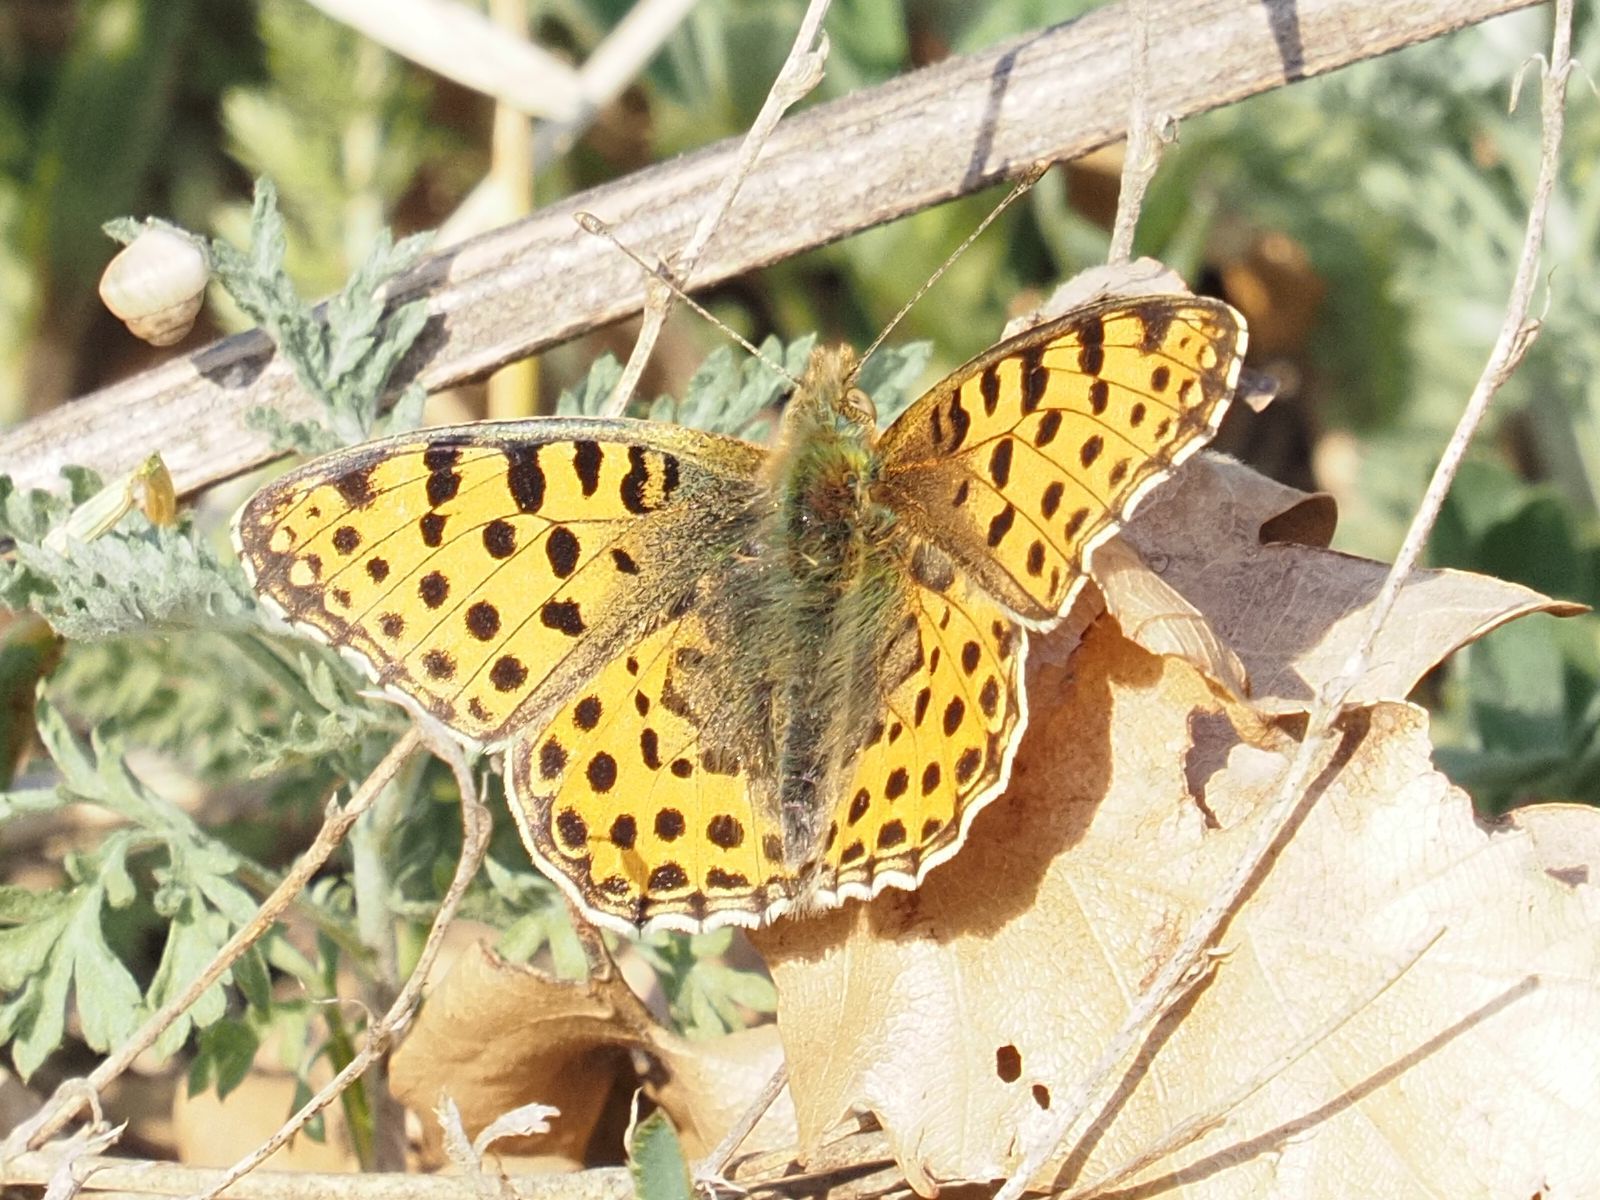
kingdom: Animalia
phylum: Arthropoda
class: Insecta
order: Lepidoptera
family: Nymphalidae
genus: Issoria
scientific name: Issoria lathonia
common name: Queen of spain fritillary
